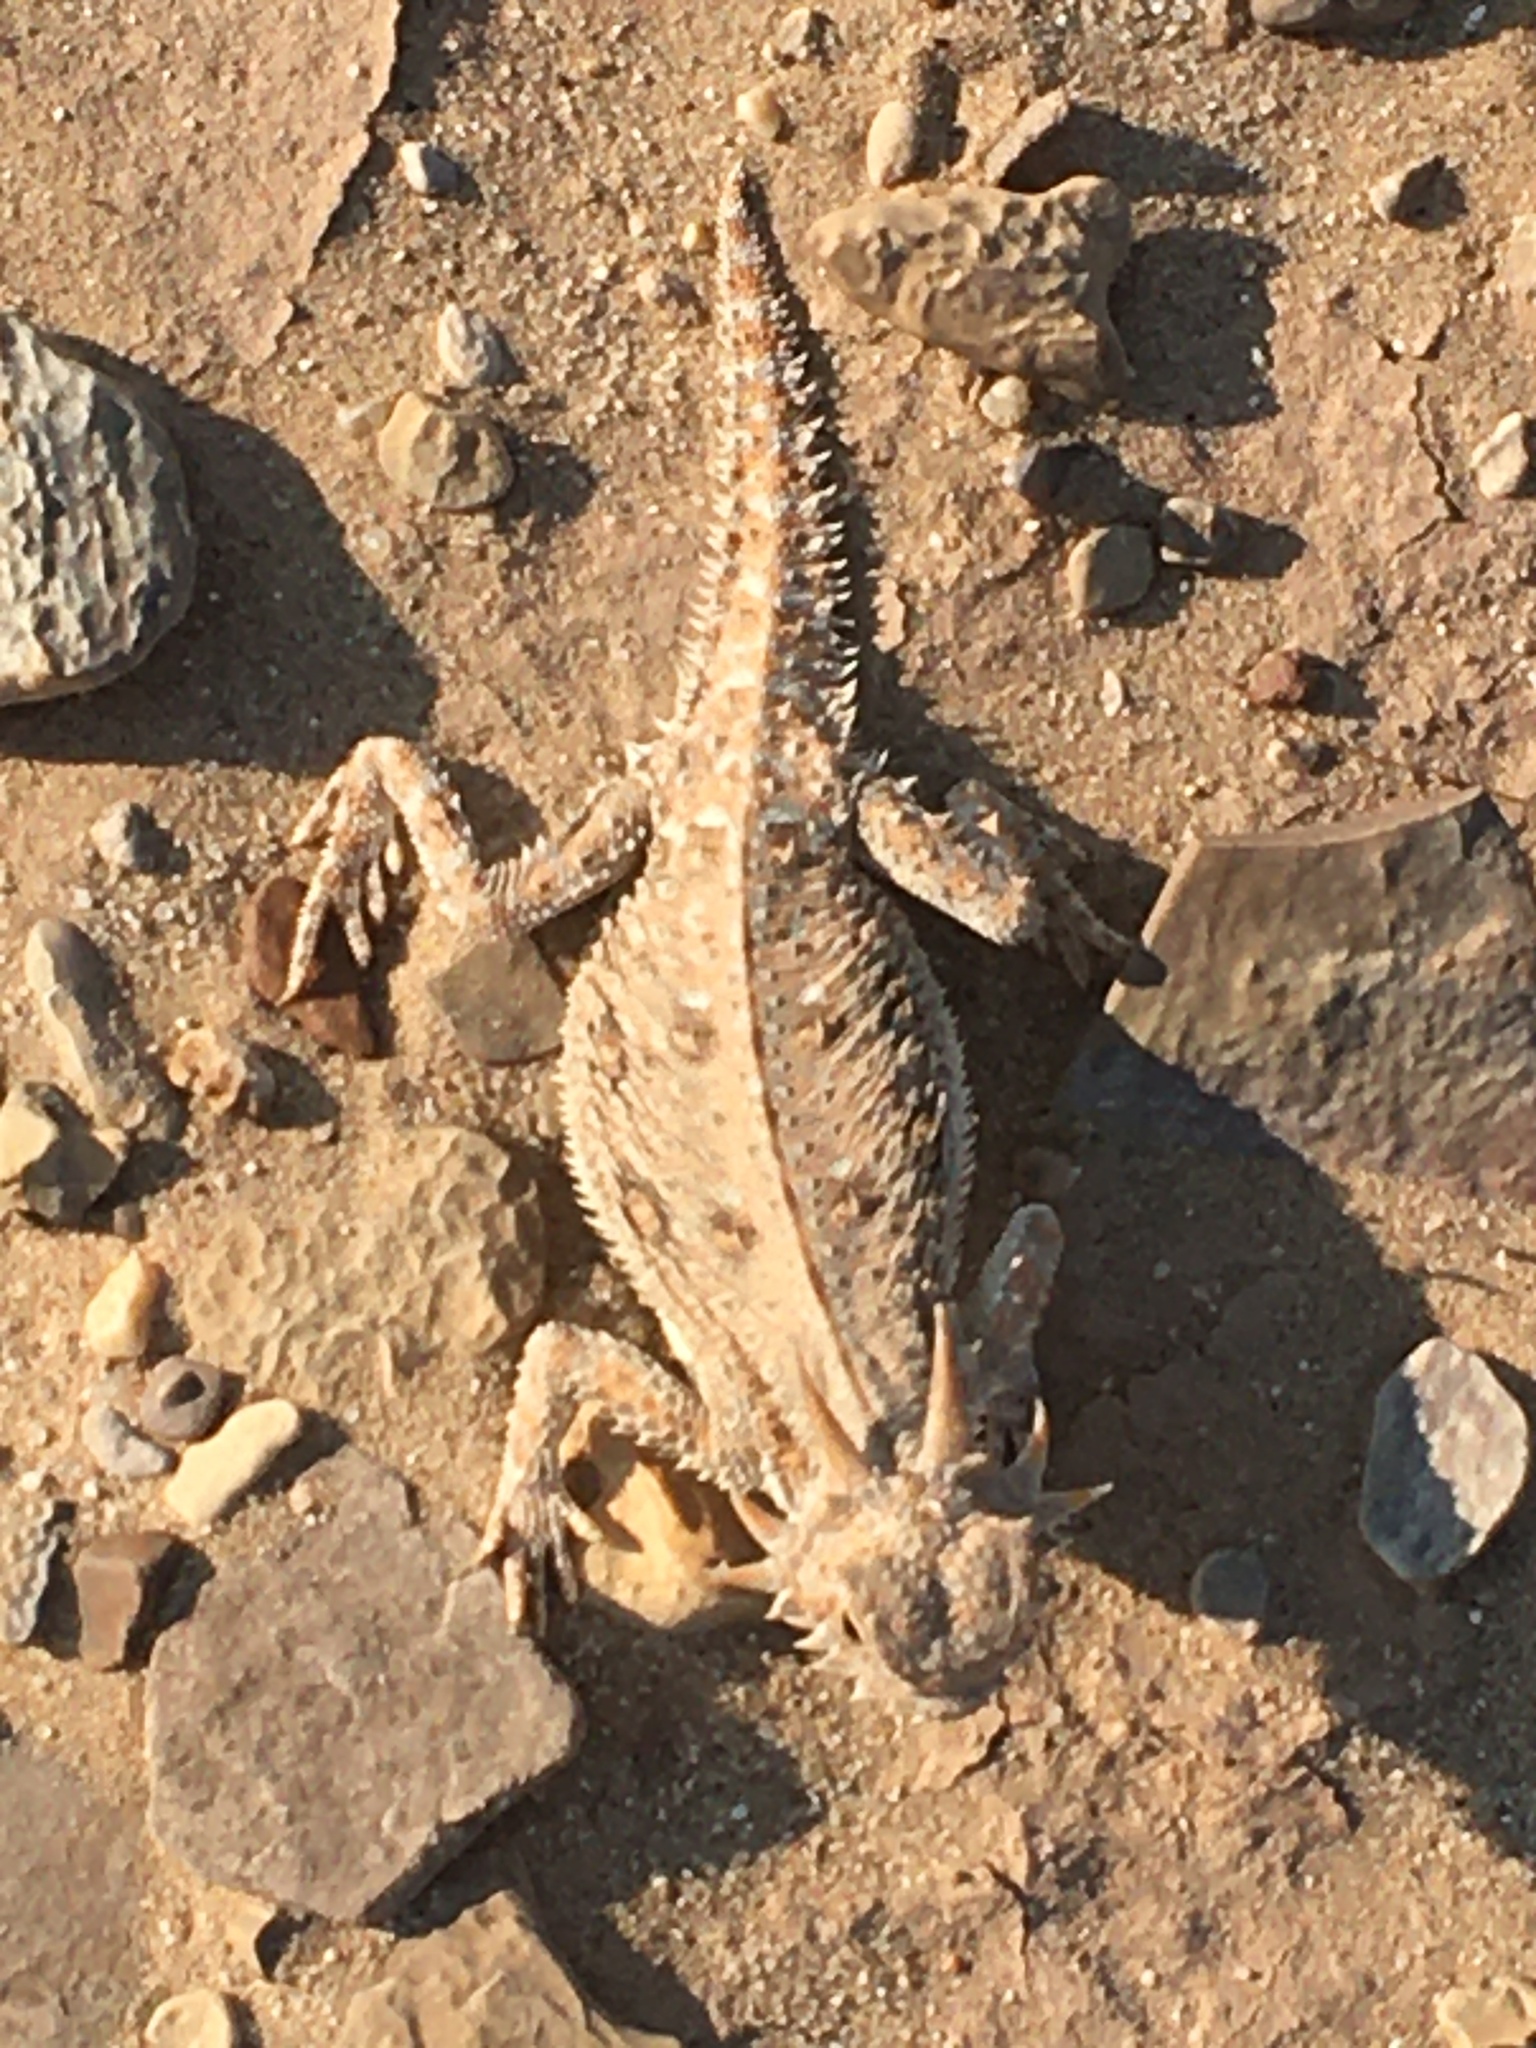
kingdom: Animalia
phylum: Chordata
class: Squamata
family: Phrynosomatidae
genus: Phrynosoma
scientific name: Phrynosoma mcallii
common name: Flat-tailed horned lizard
